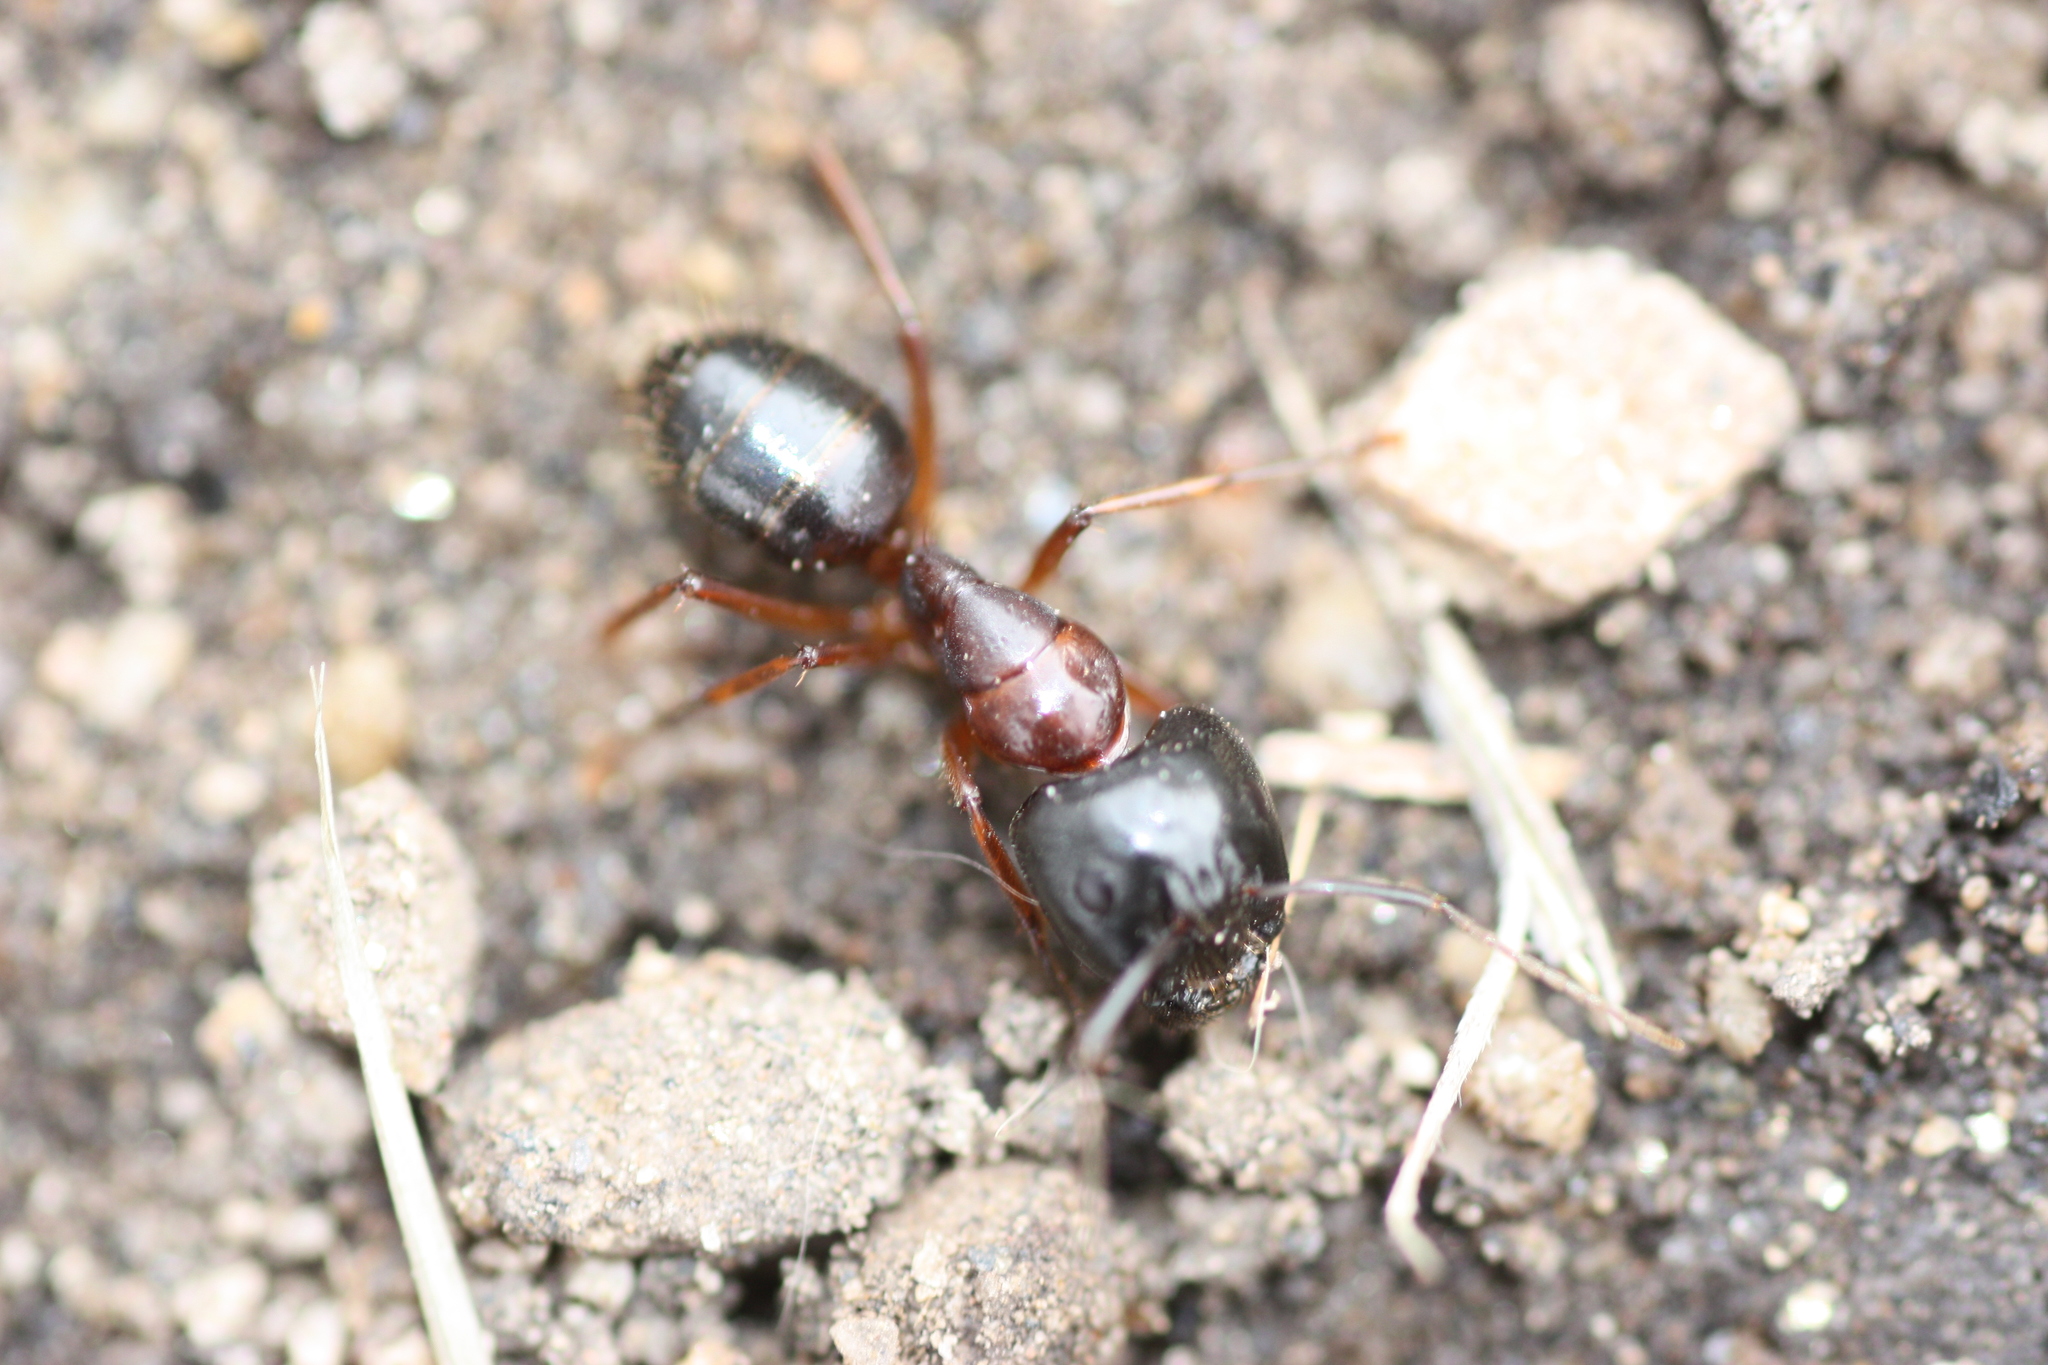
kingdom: Animalia
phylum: Arthropoda
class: Insecta
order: Hymenoptera
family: Formicidae
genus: Camponotus
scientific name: Camponotus vicinus
